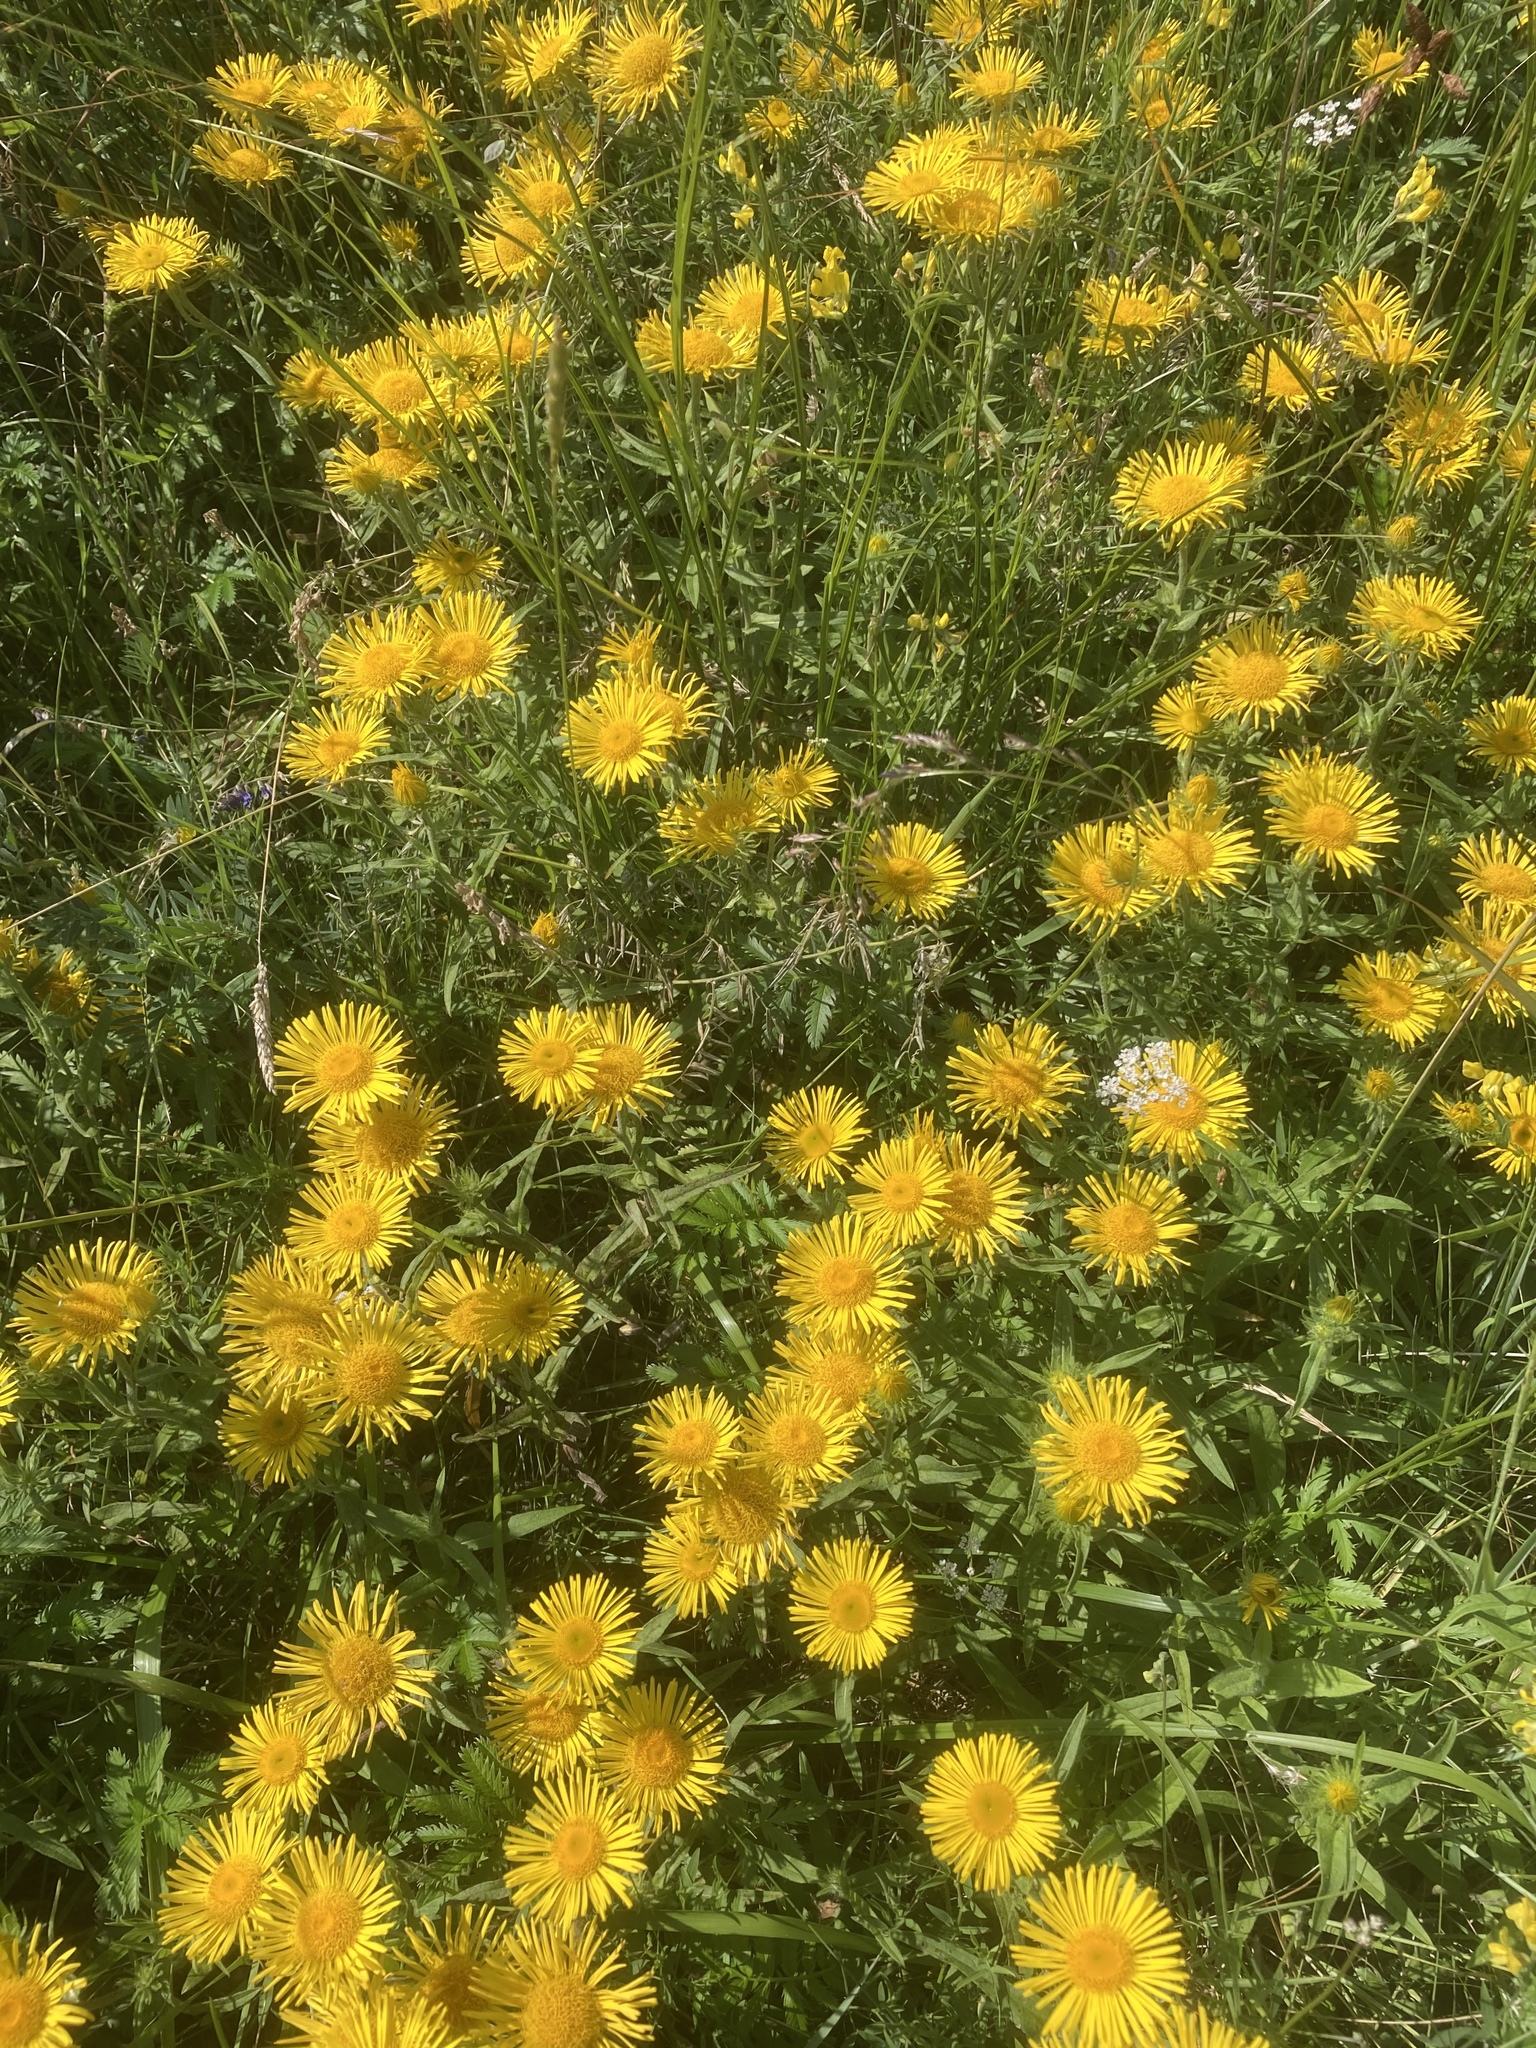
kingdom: Plantae
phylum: Tracheophyta
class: Magnoliopsida
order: Asterales
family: Asteraceae
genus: Pentanema
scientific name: Pentanema britannicum
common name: British elecampane
